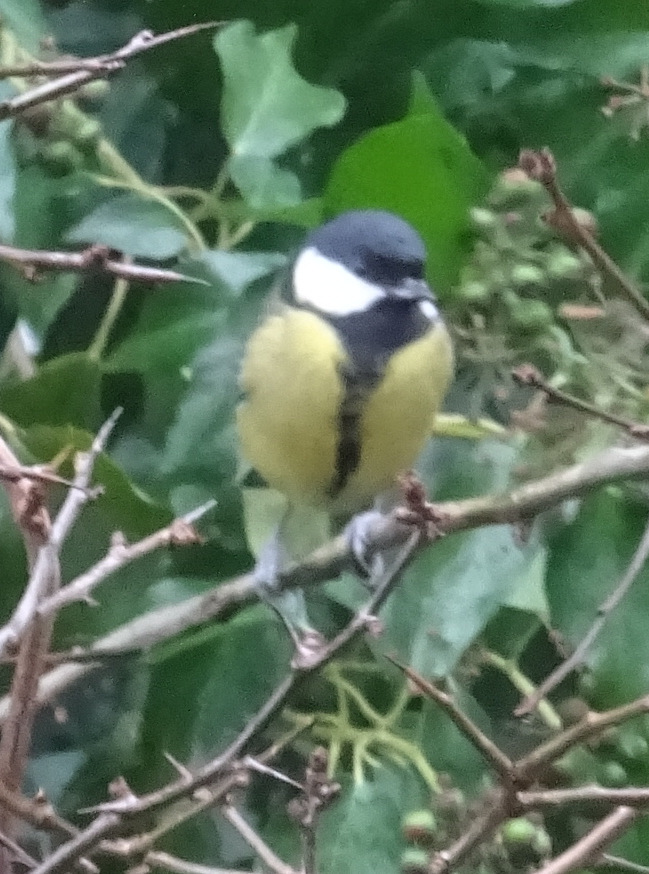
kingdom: Animalia
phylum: Chordata
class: Aves
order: Passeriformes
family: Paridae
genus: Parus
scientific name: Parus major
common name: Great tit
